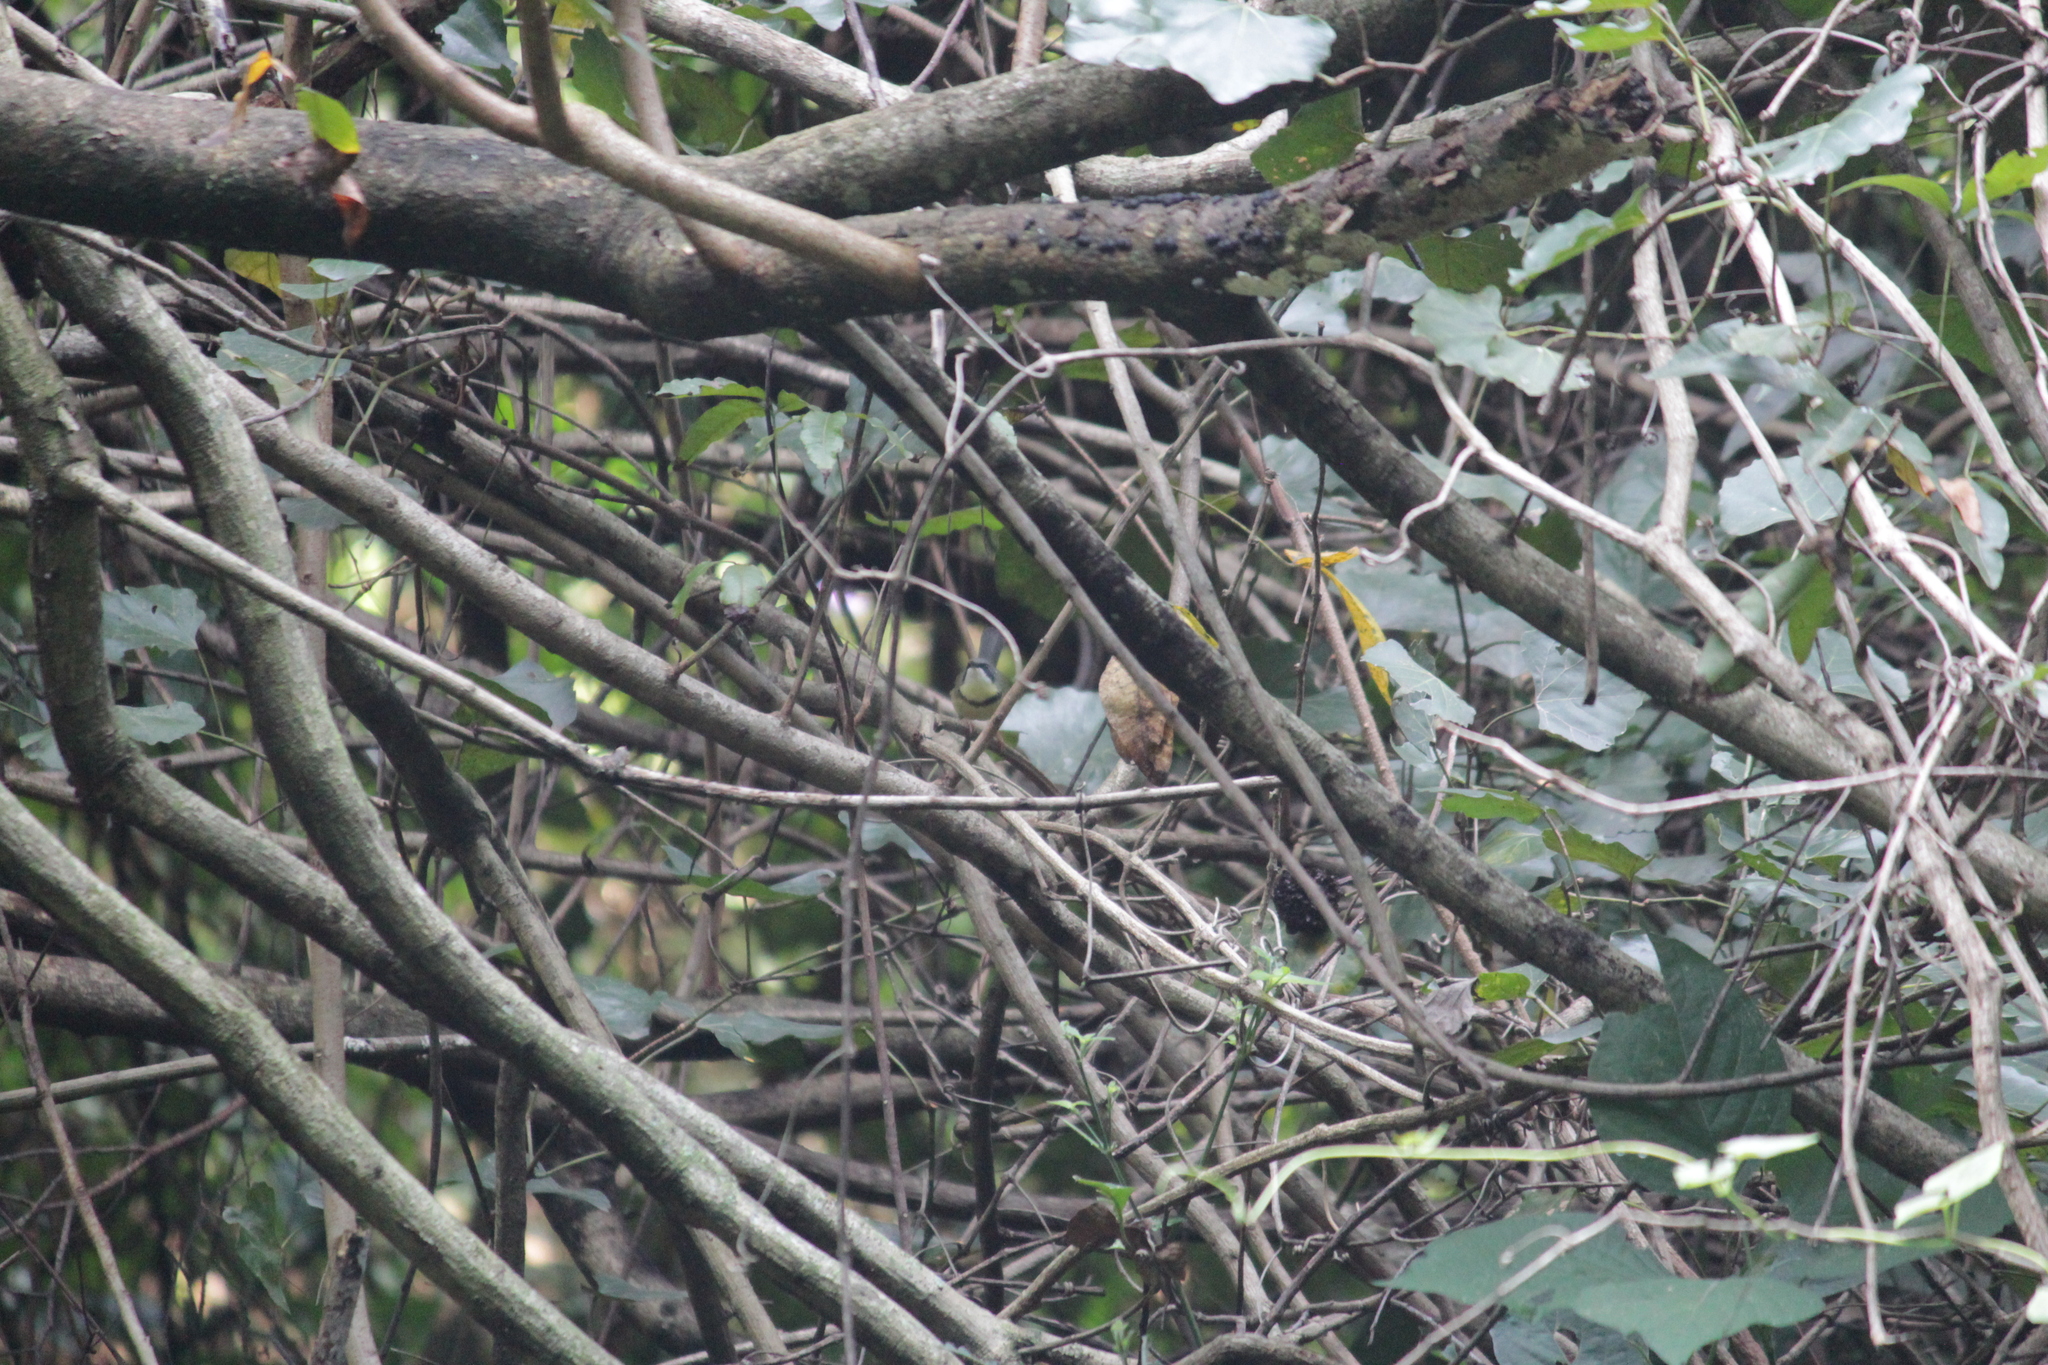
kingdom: Animalia
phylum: Chordata
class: Aves
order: Passeriformes
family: Cisticolidae
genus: Apalis
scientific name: Apalis thoracica
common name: Bar-throated apalis
